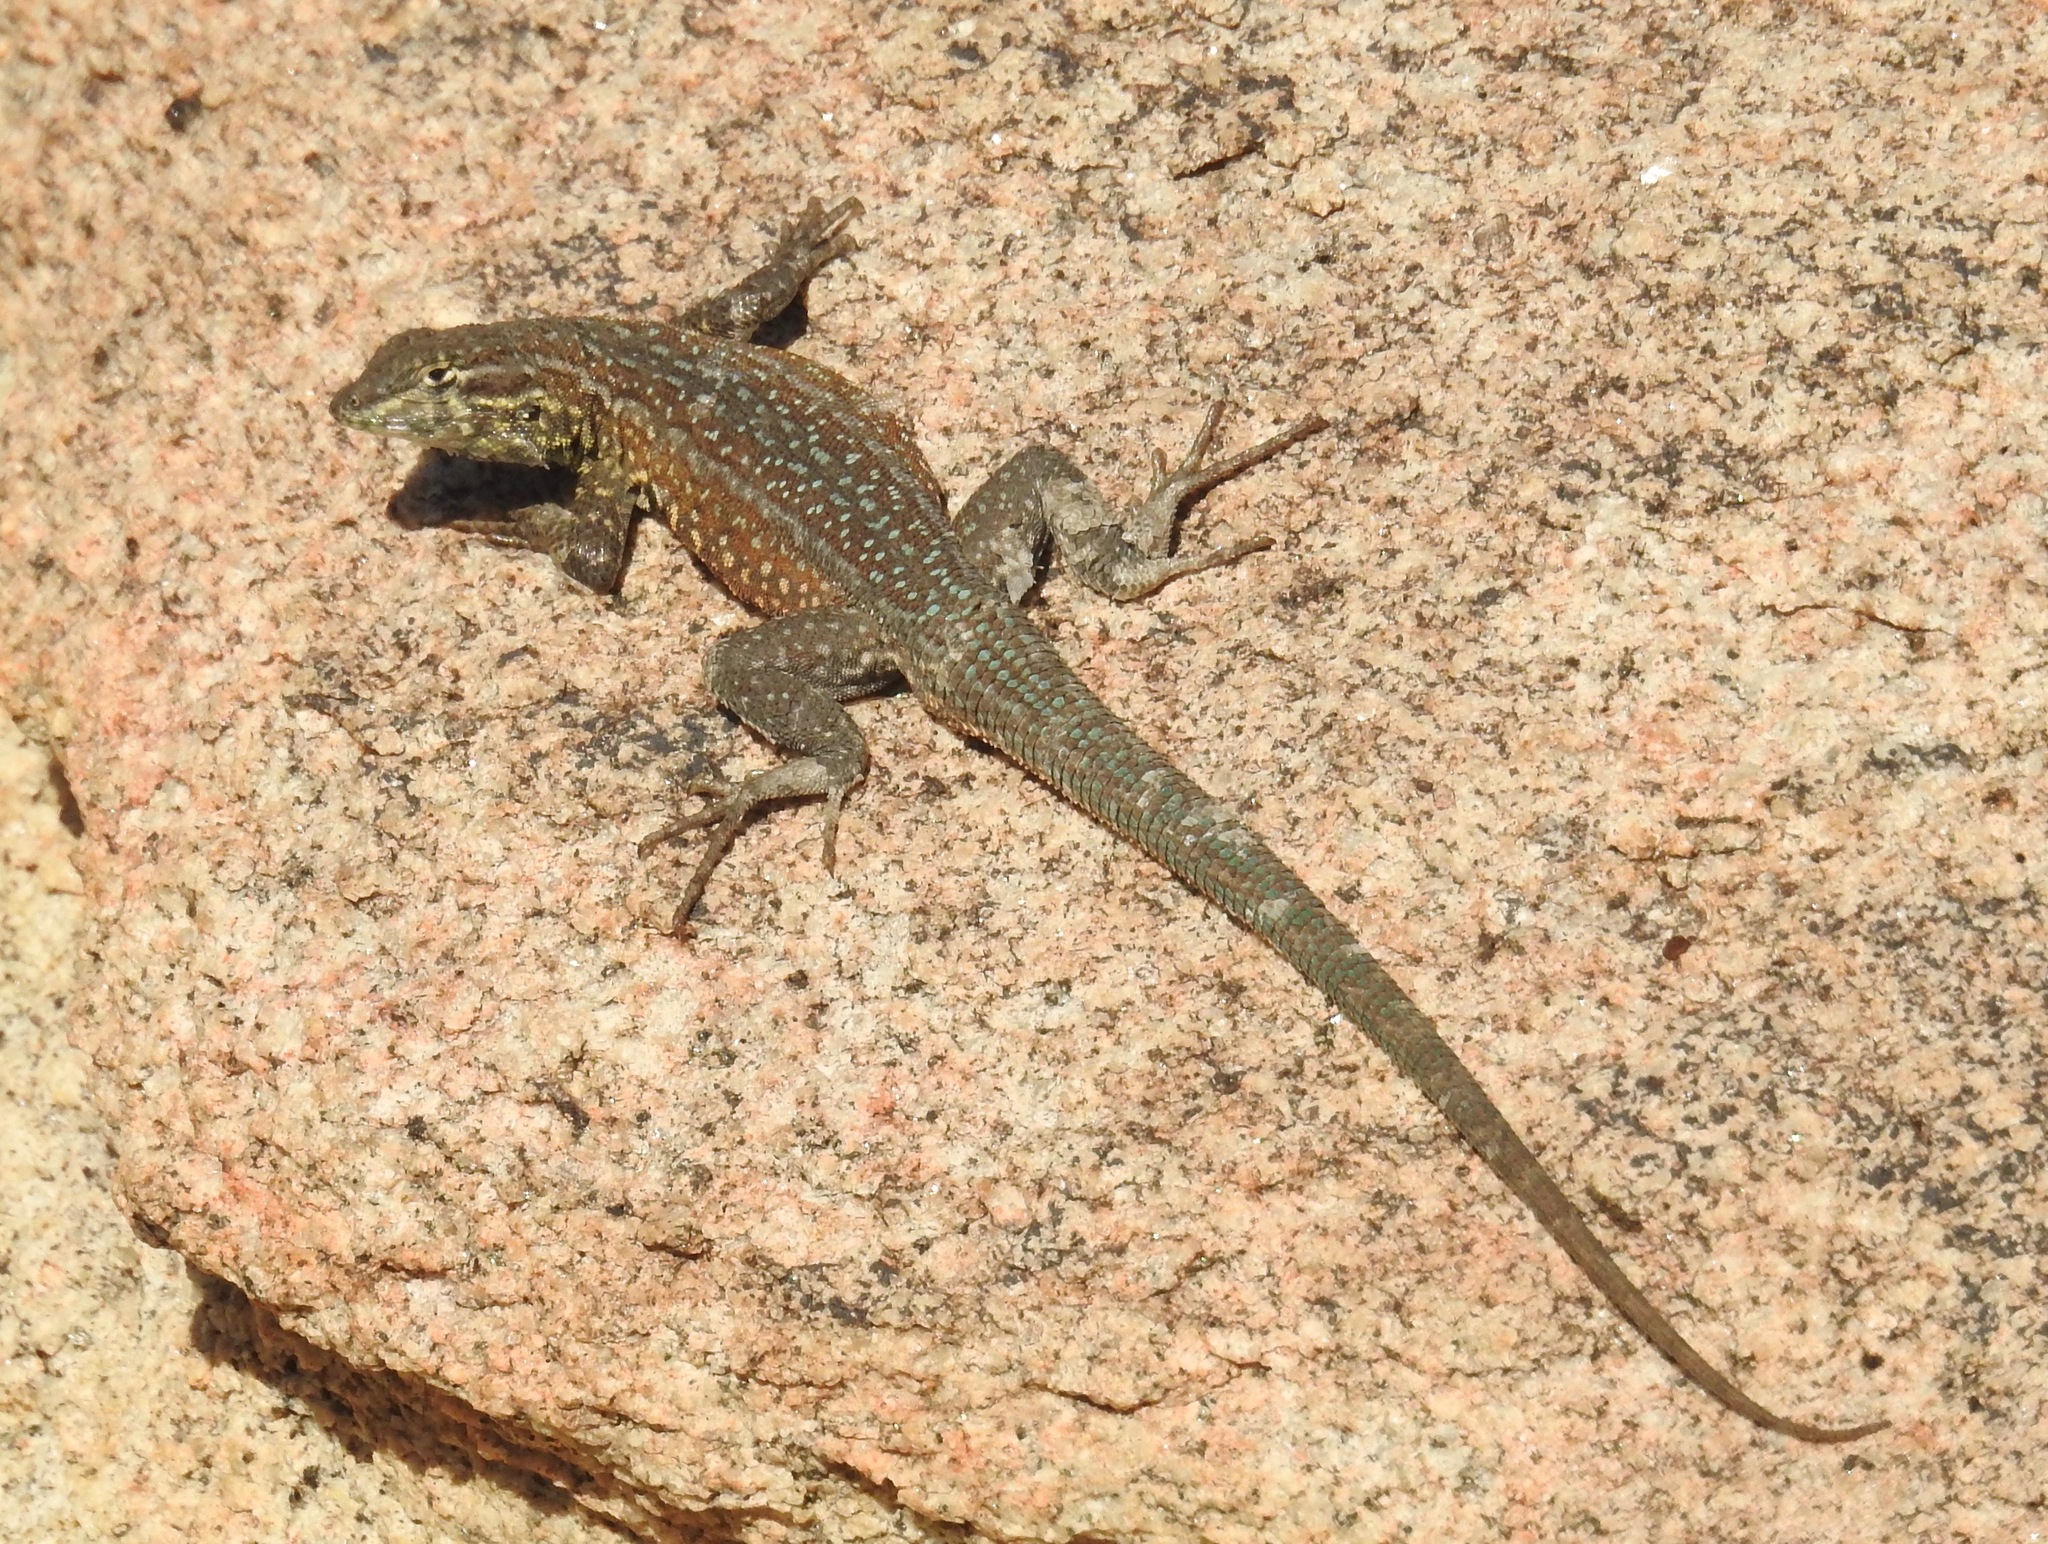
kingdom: Animalia
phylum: Chordata
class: Squamata
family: Phrynosomatidae
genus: Uta
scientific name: Uta stansburiana
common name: Side-blotched lizard
